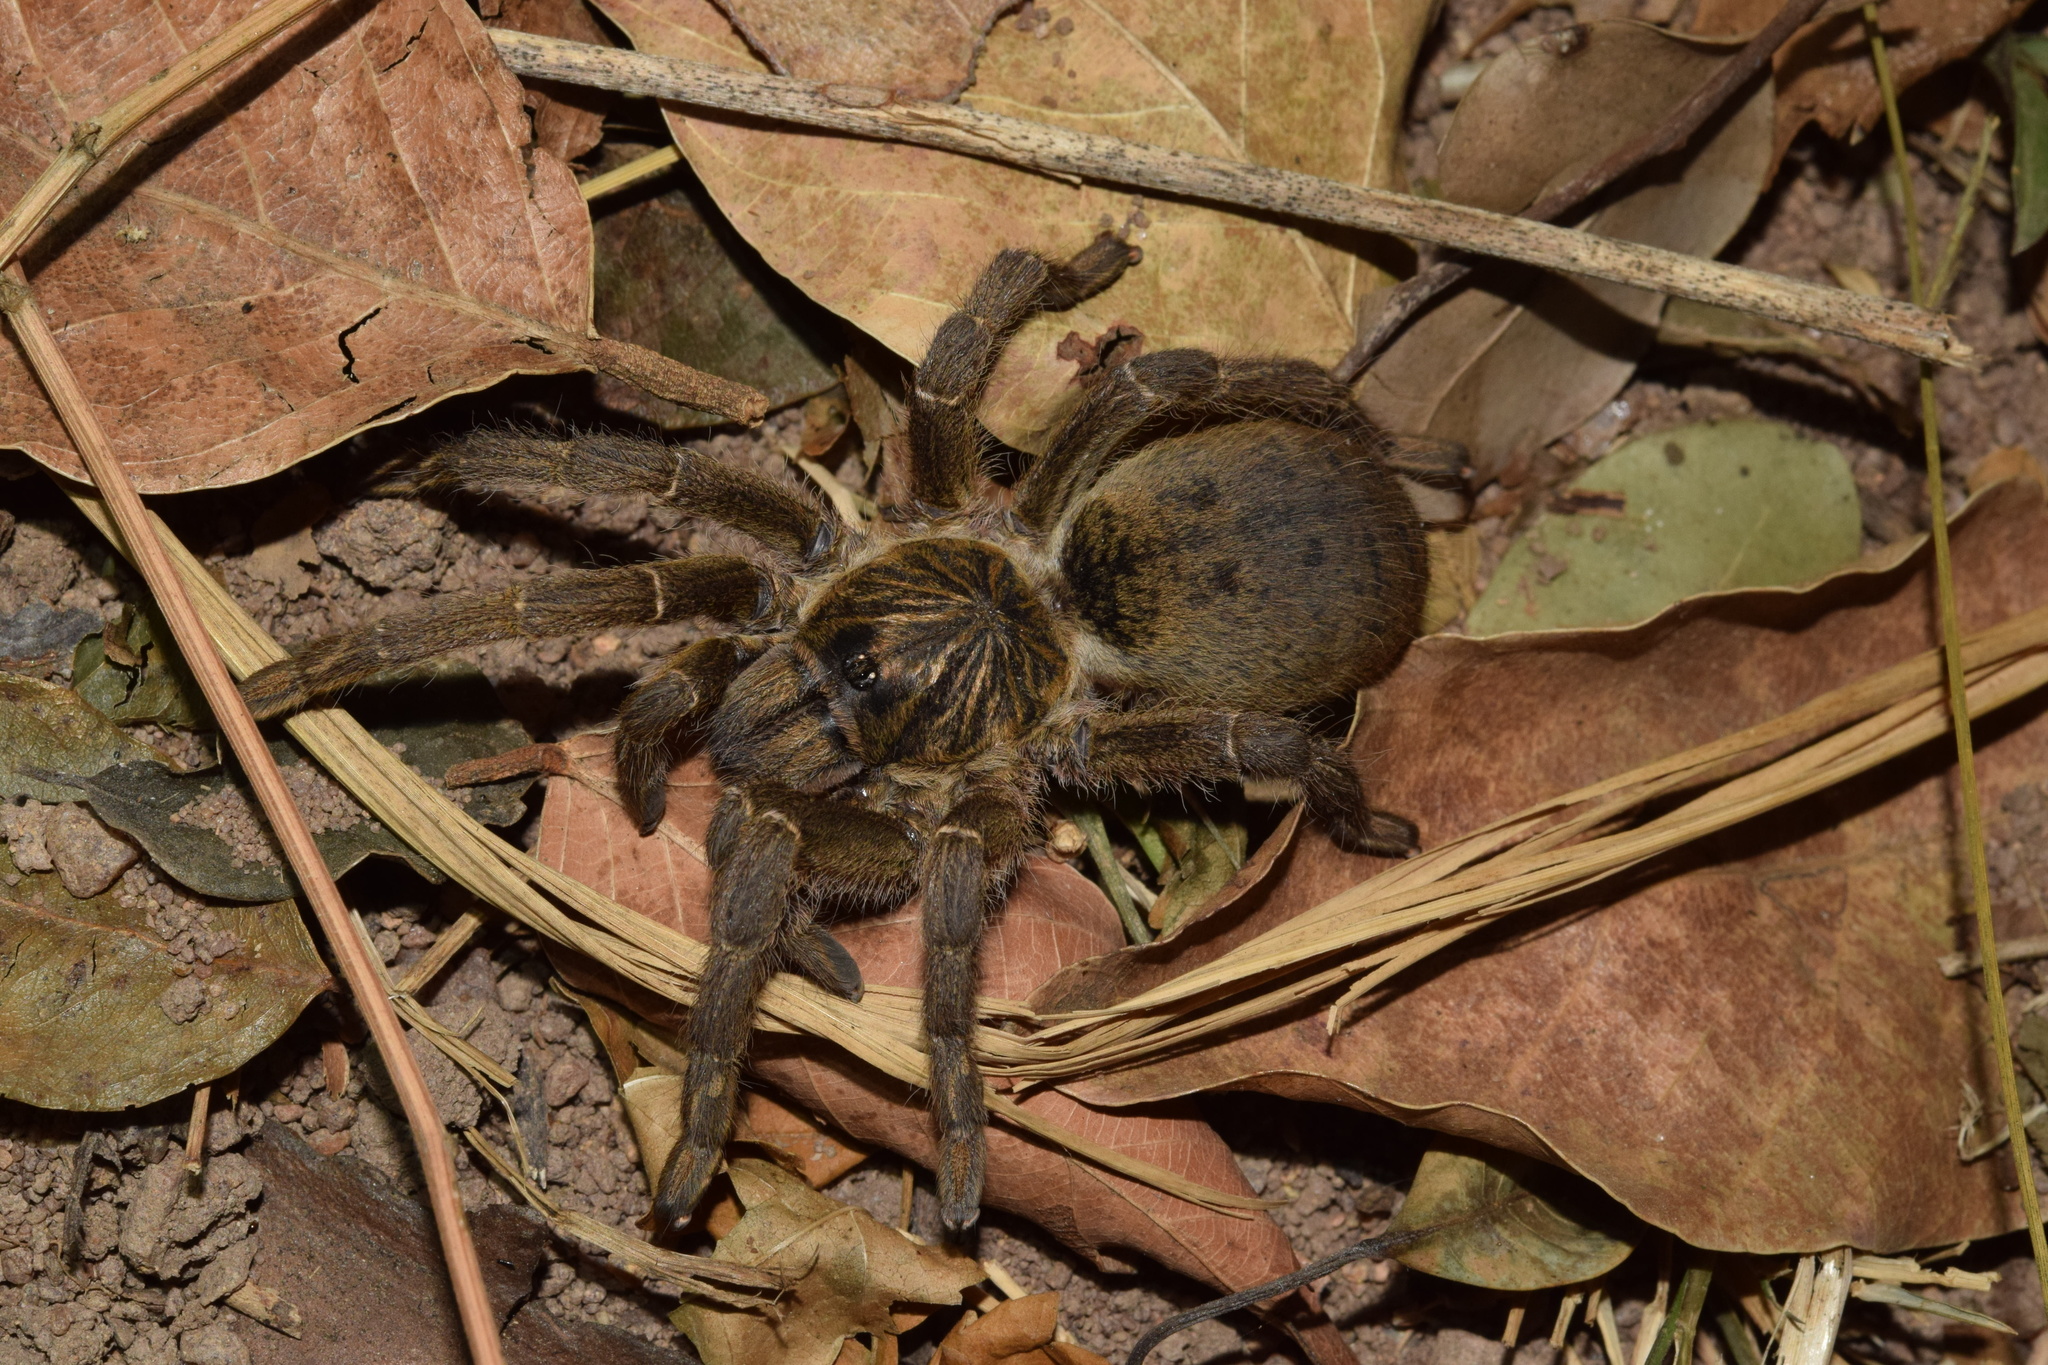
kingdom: Animalia
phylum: Arthropoda
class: Arachnida
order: Araneae
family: Theraphosidae
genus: Harpactira
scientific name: Harpactira curator
